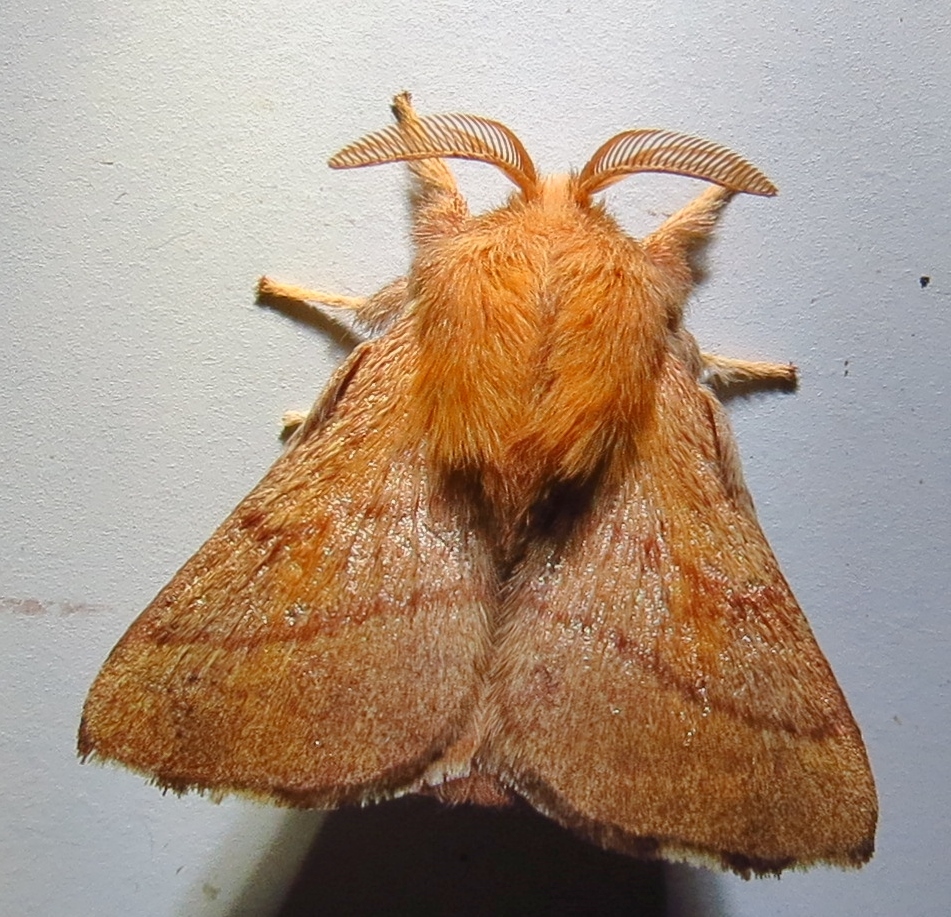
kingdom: Animalia
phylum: Arthropoda
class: Insecta
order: Lepidoptera
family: Lasiocampidae
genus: Malacosoma
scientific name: Malacosoma disstria
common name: Forest tent caterpillar
